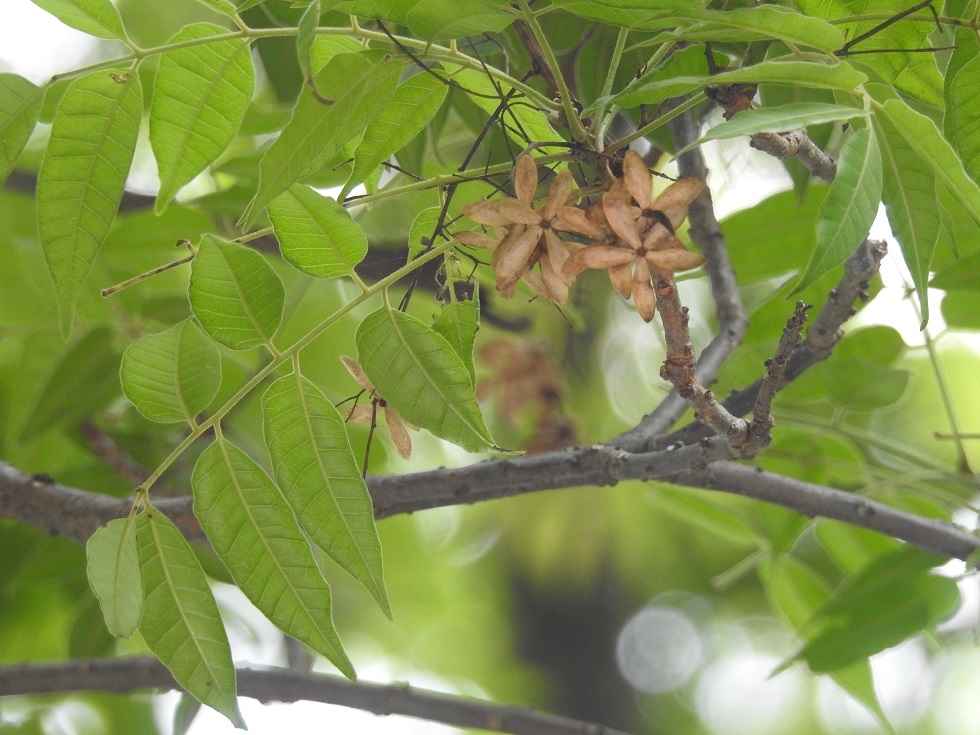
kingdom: Plantae
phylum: Tracheophyta
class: Magnoliopsida
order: Sapindales
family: Anacardiaceae
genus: Astronium
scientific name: Astronium graveolens
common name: Glassywood
